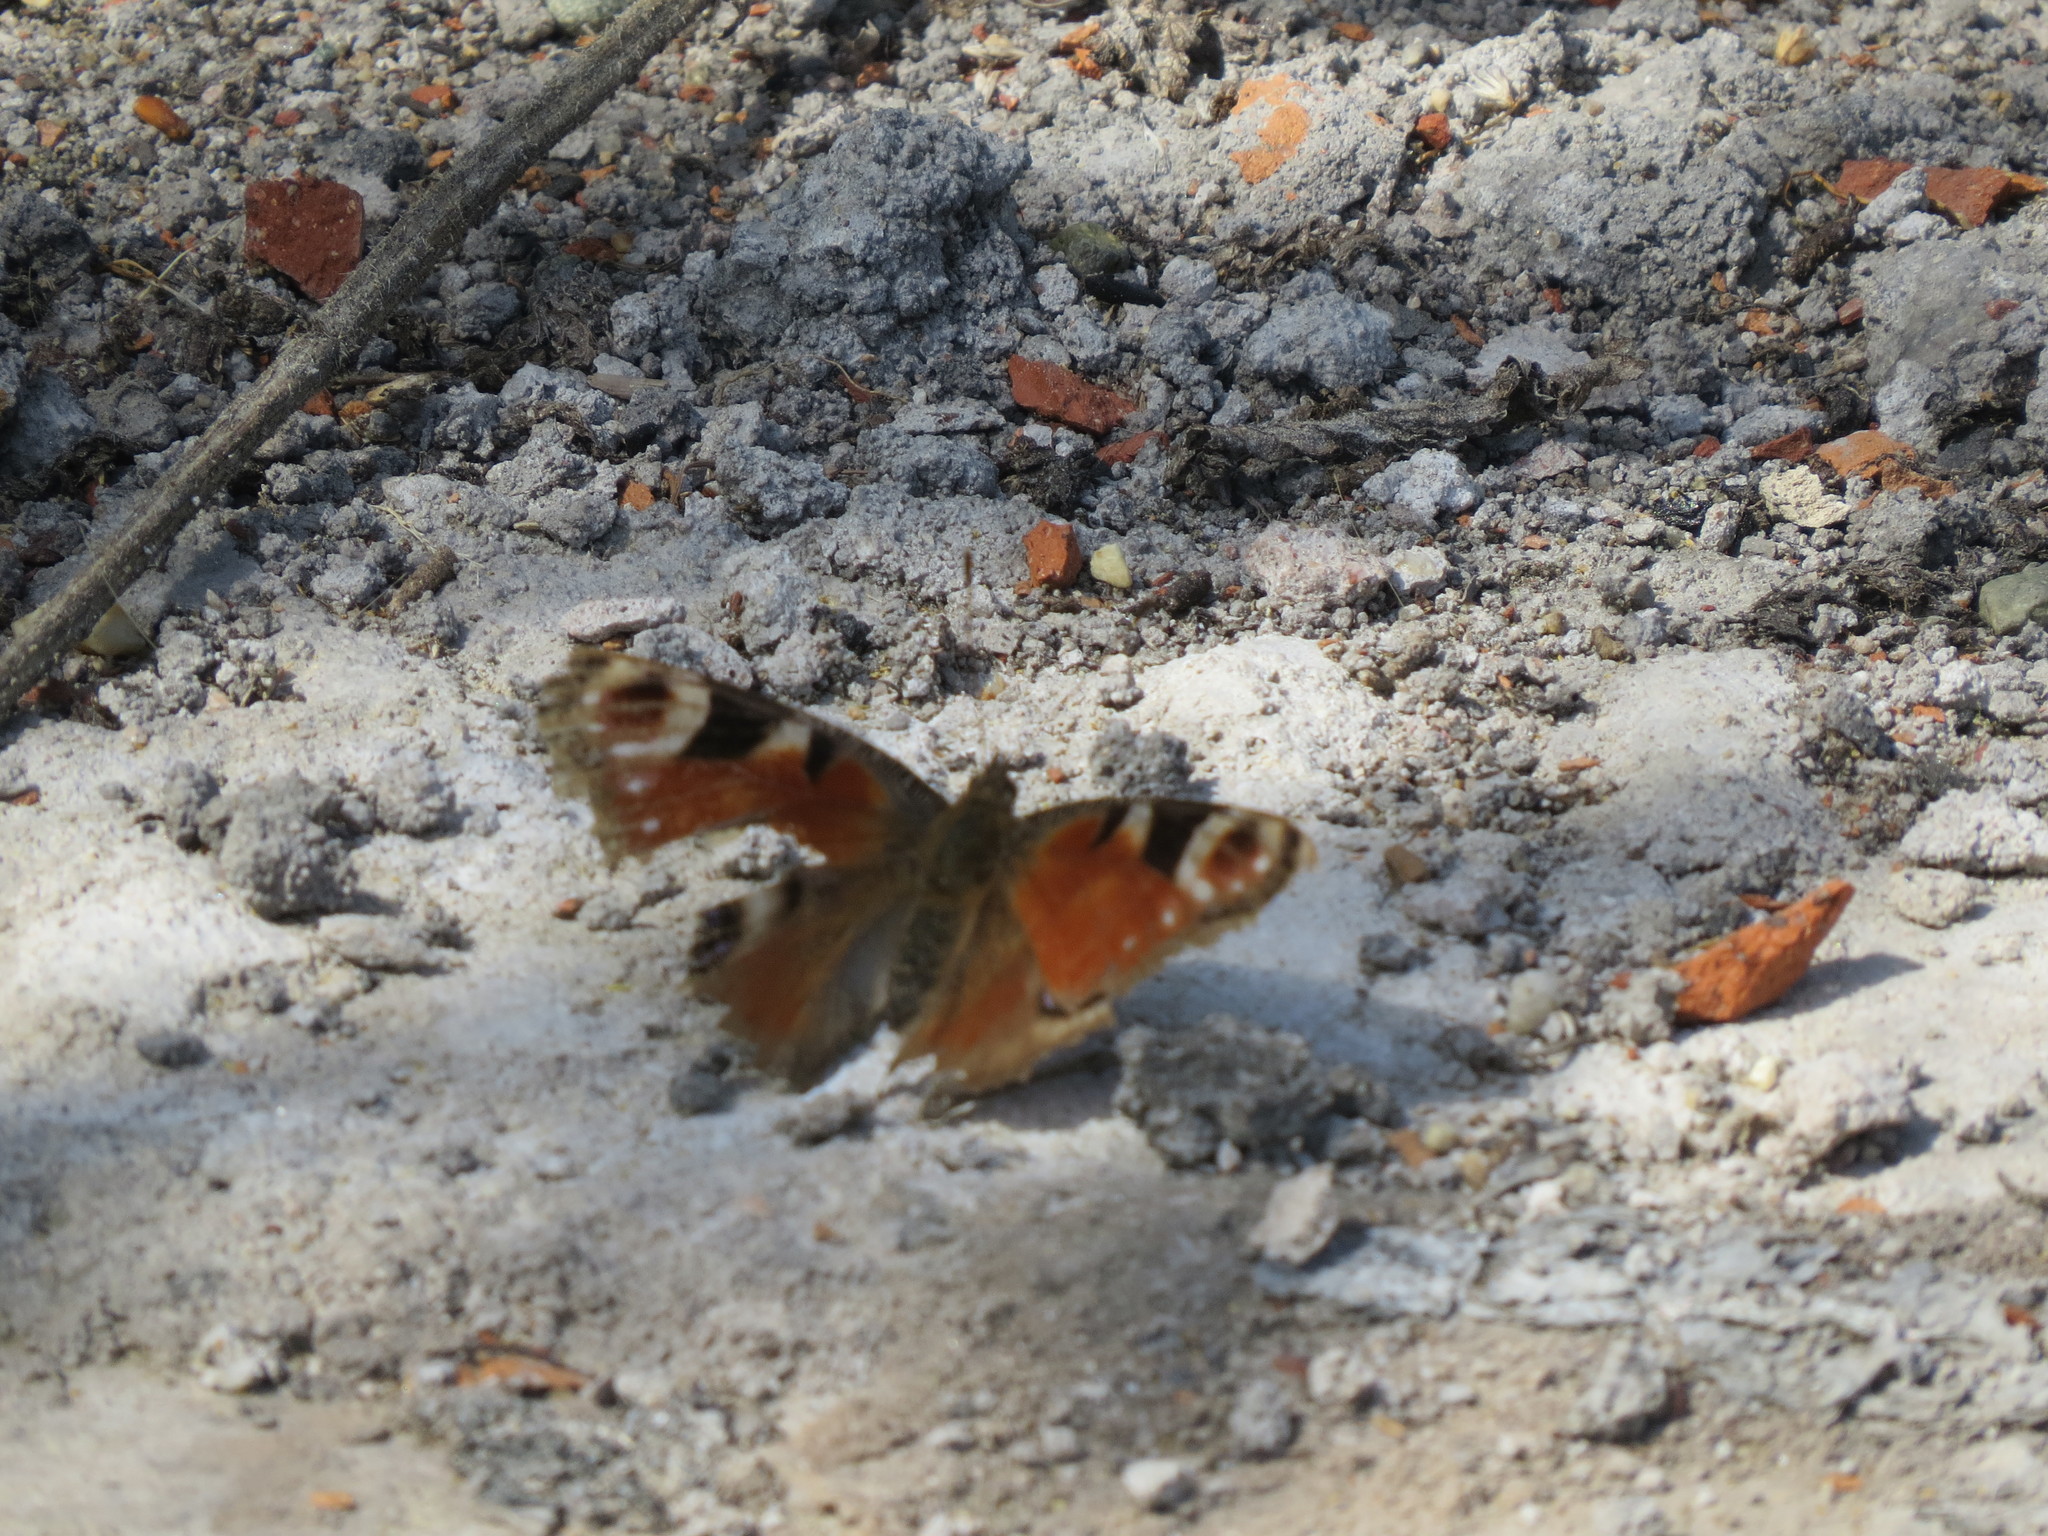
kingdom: Animalia
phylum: Arthropoda
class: Insecta
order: Lepidoptera
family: Nymphalidae
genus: Aglais
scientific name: Aglais io
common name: Peacock
